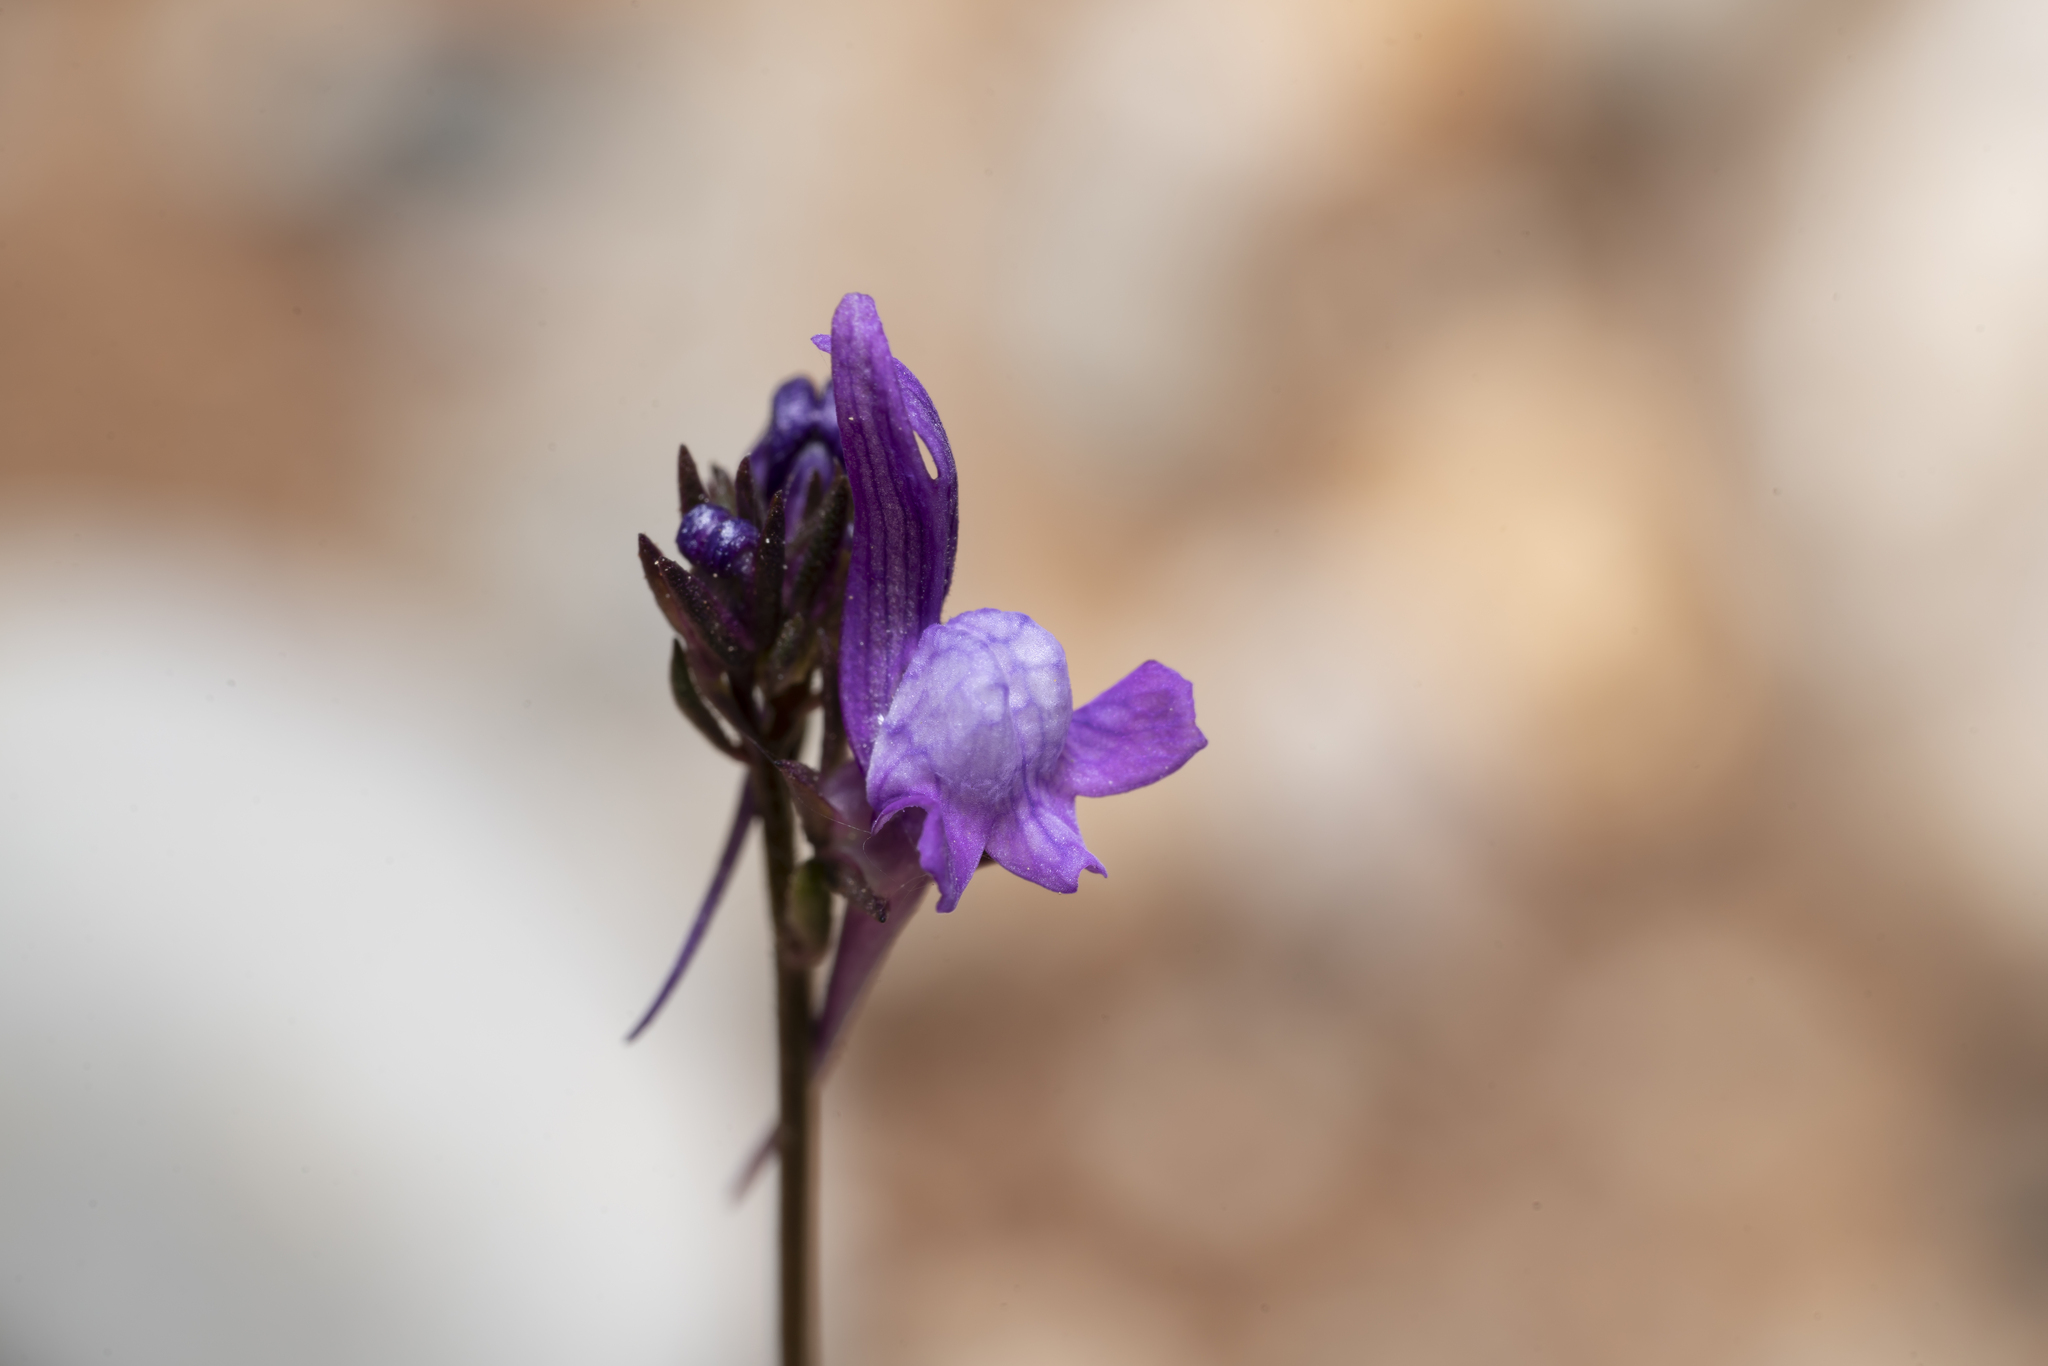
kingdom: Plantae
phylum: Tracheophyta
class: Magnoliopsida
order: Lamiales
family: Plantaginaceae
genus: Linaria
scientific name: Linaria pelisseriana
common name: Jersey toadflax
